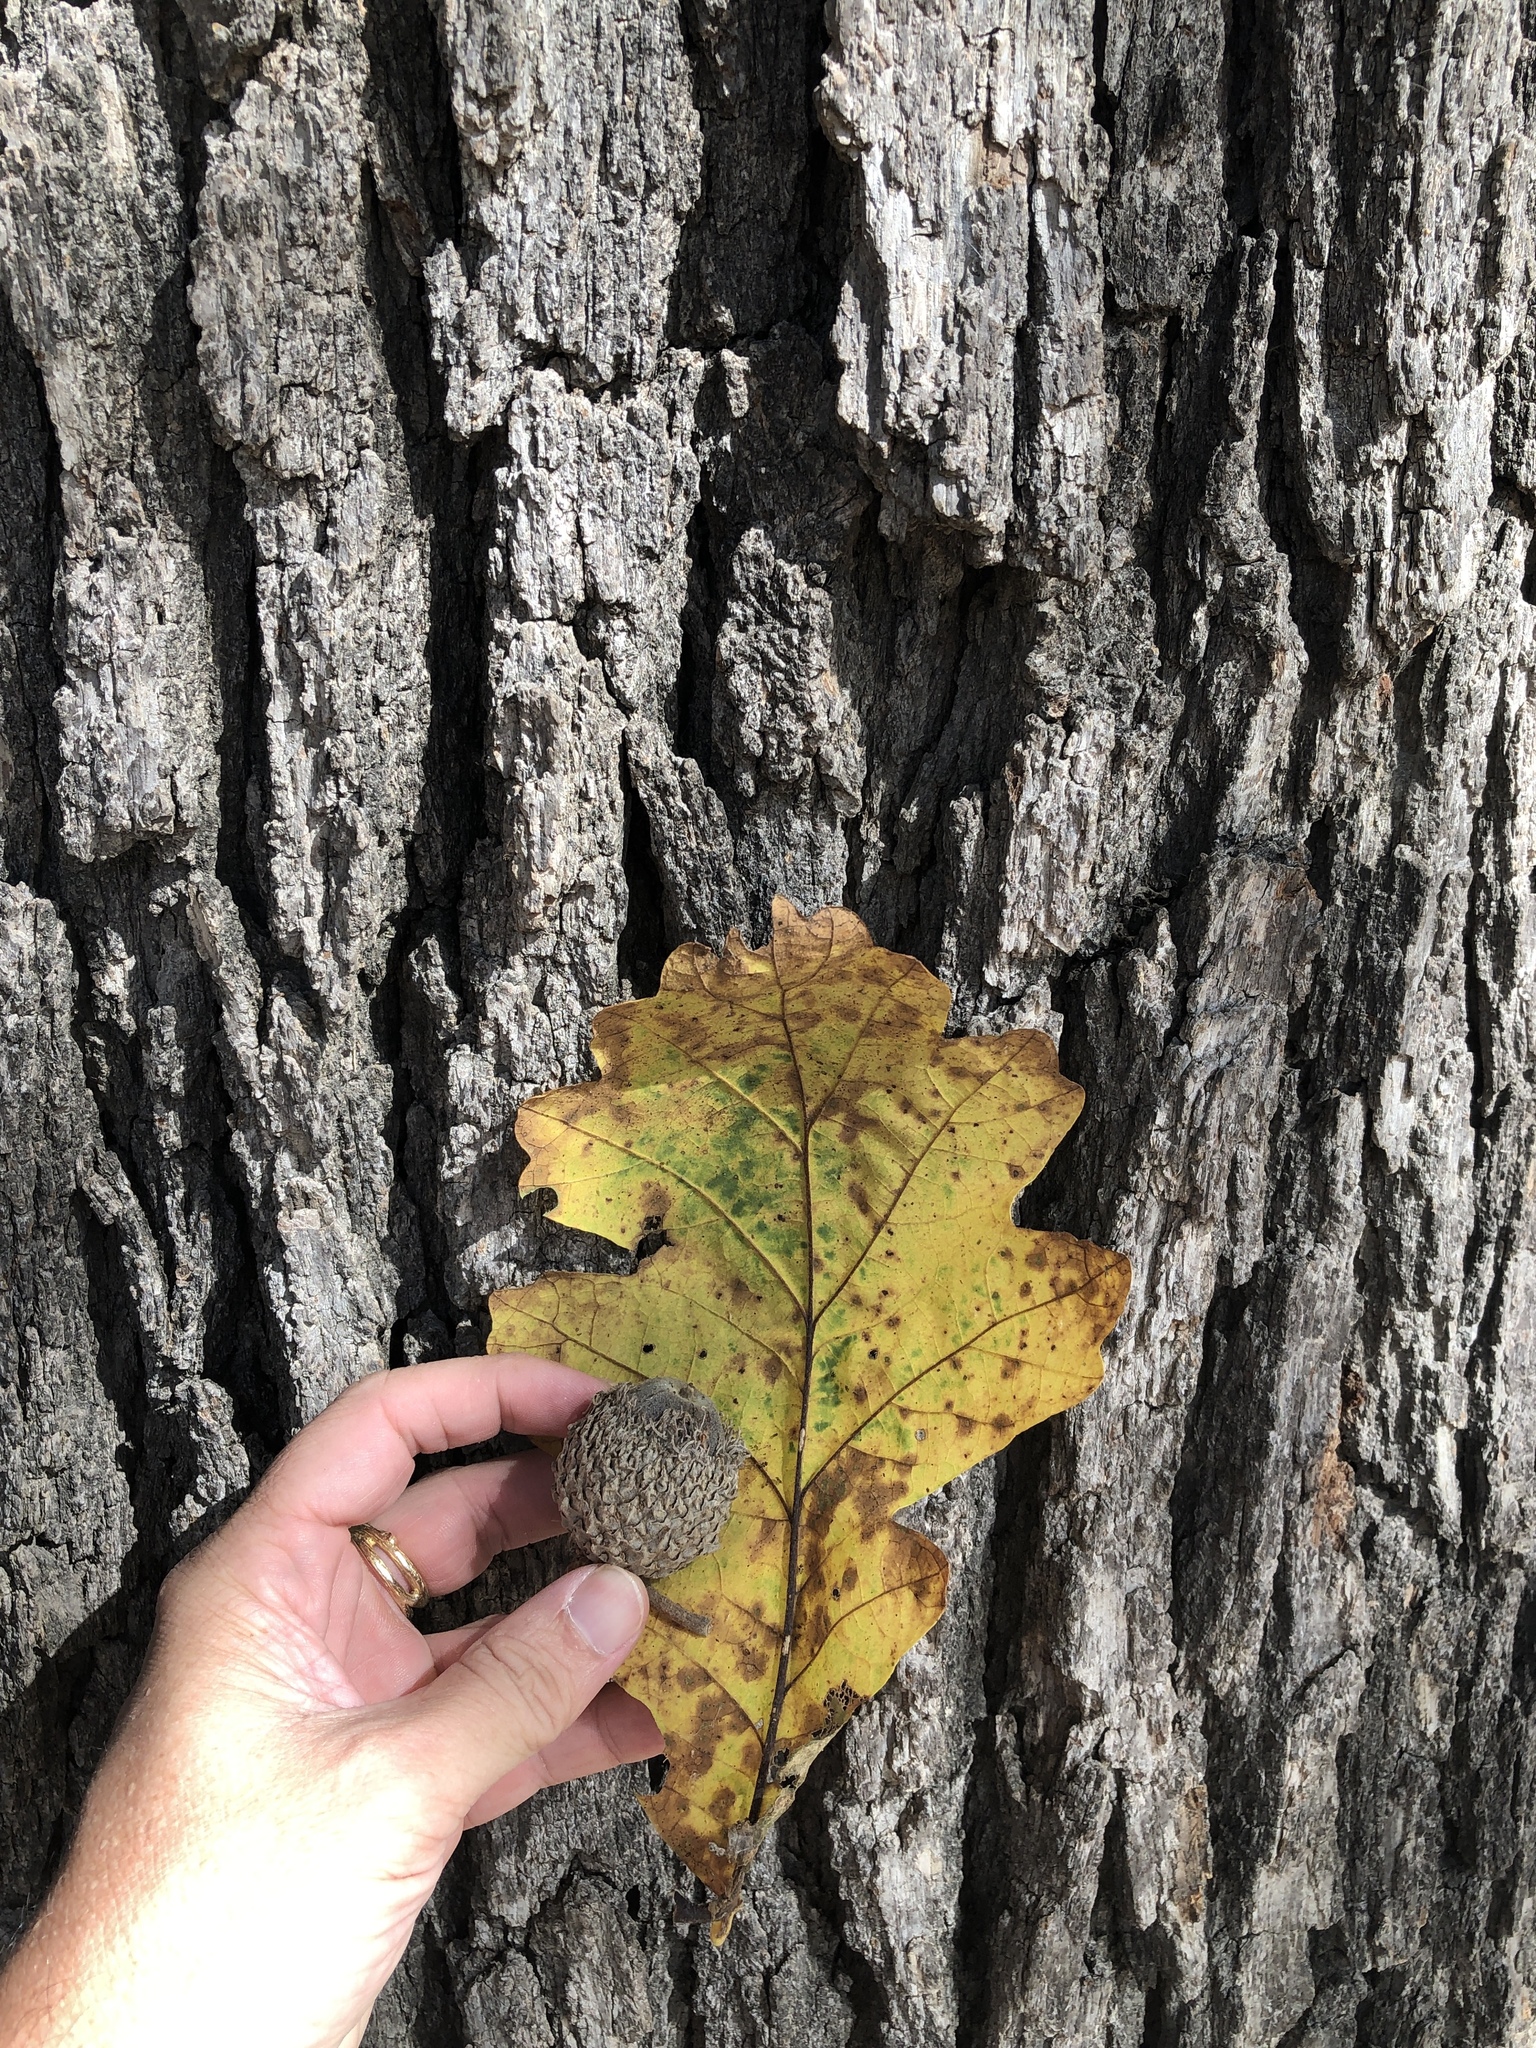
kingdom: Plantae
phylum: Tracheophyta
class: Magnoliopsida
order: Fagales
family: Fagaceae
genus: Quercus
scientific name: Quercus macrocarpa
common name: Bur oak
